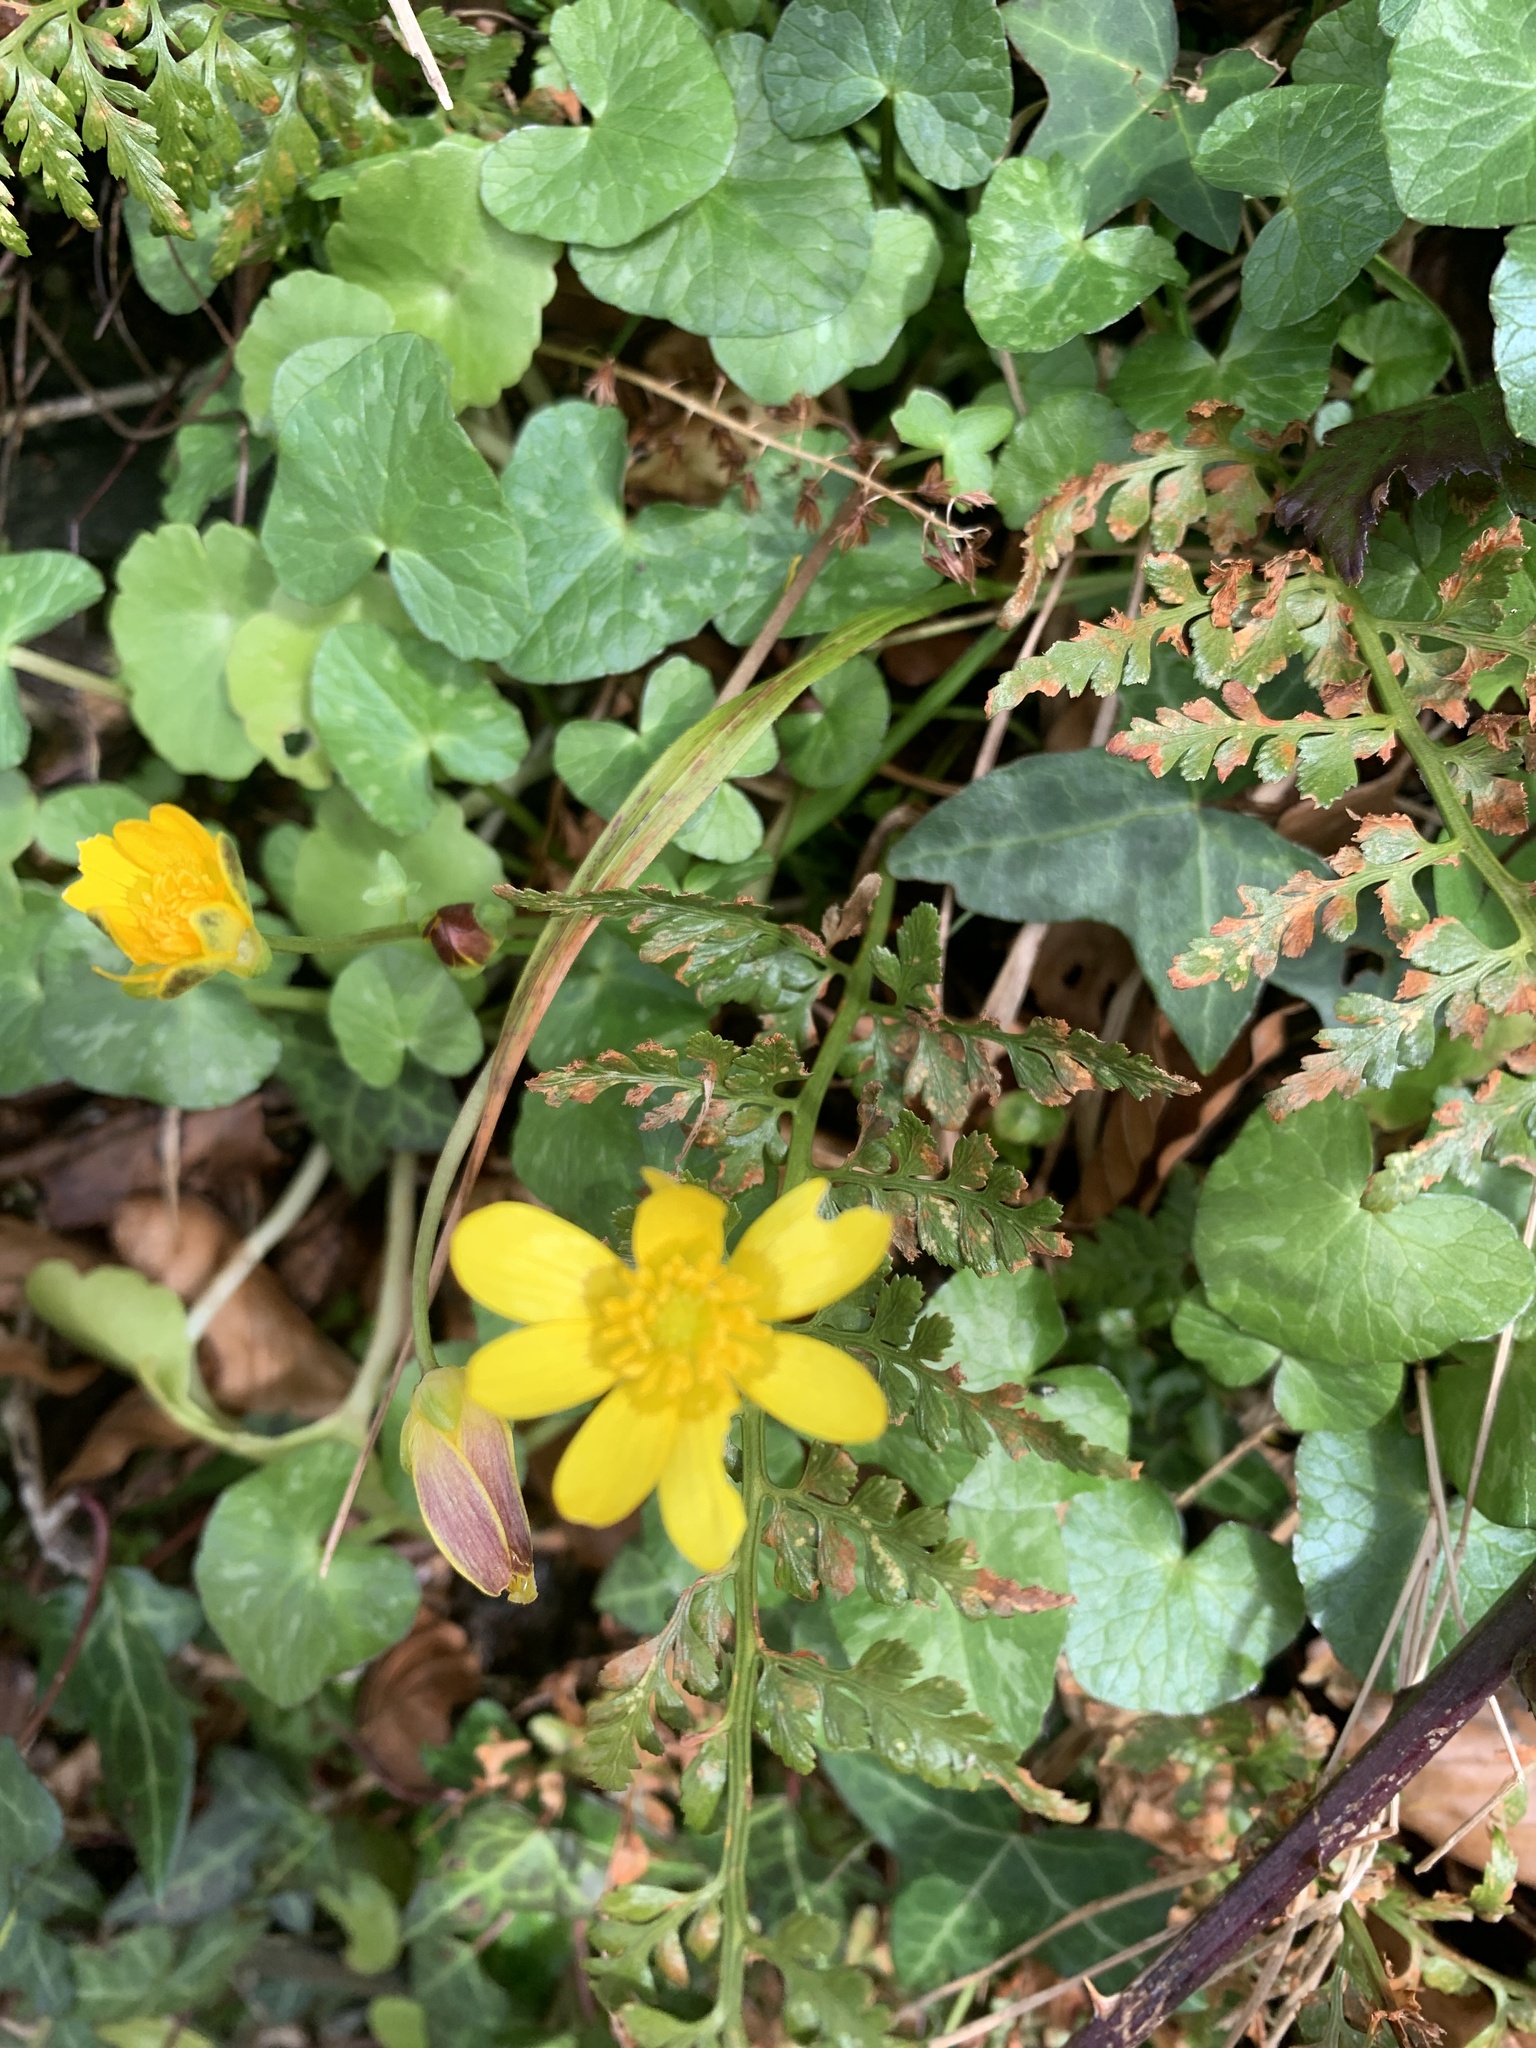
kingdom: Plantae
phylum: Tracheophyta
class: Magnoliopsida
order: Ranunculales
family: Ranunculaceae
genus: Ficaria
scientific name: Ficaria verna
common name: Lesser celandine
